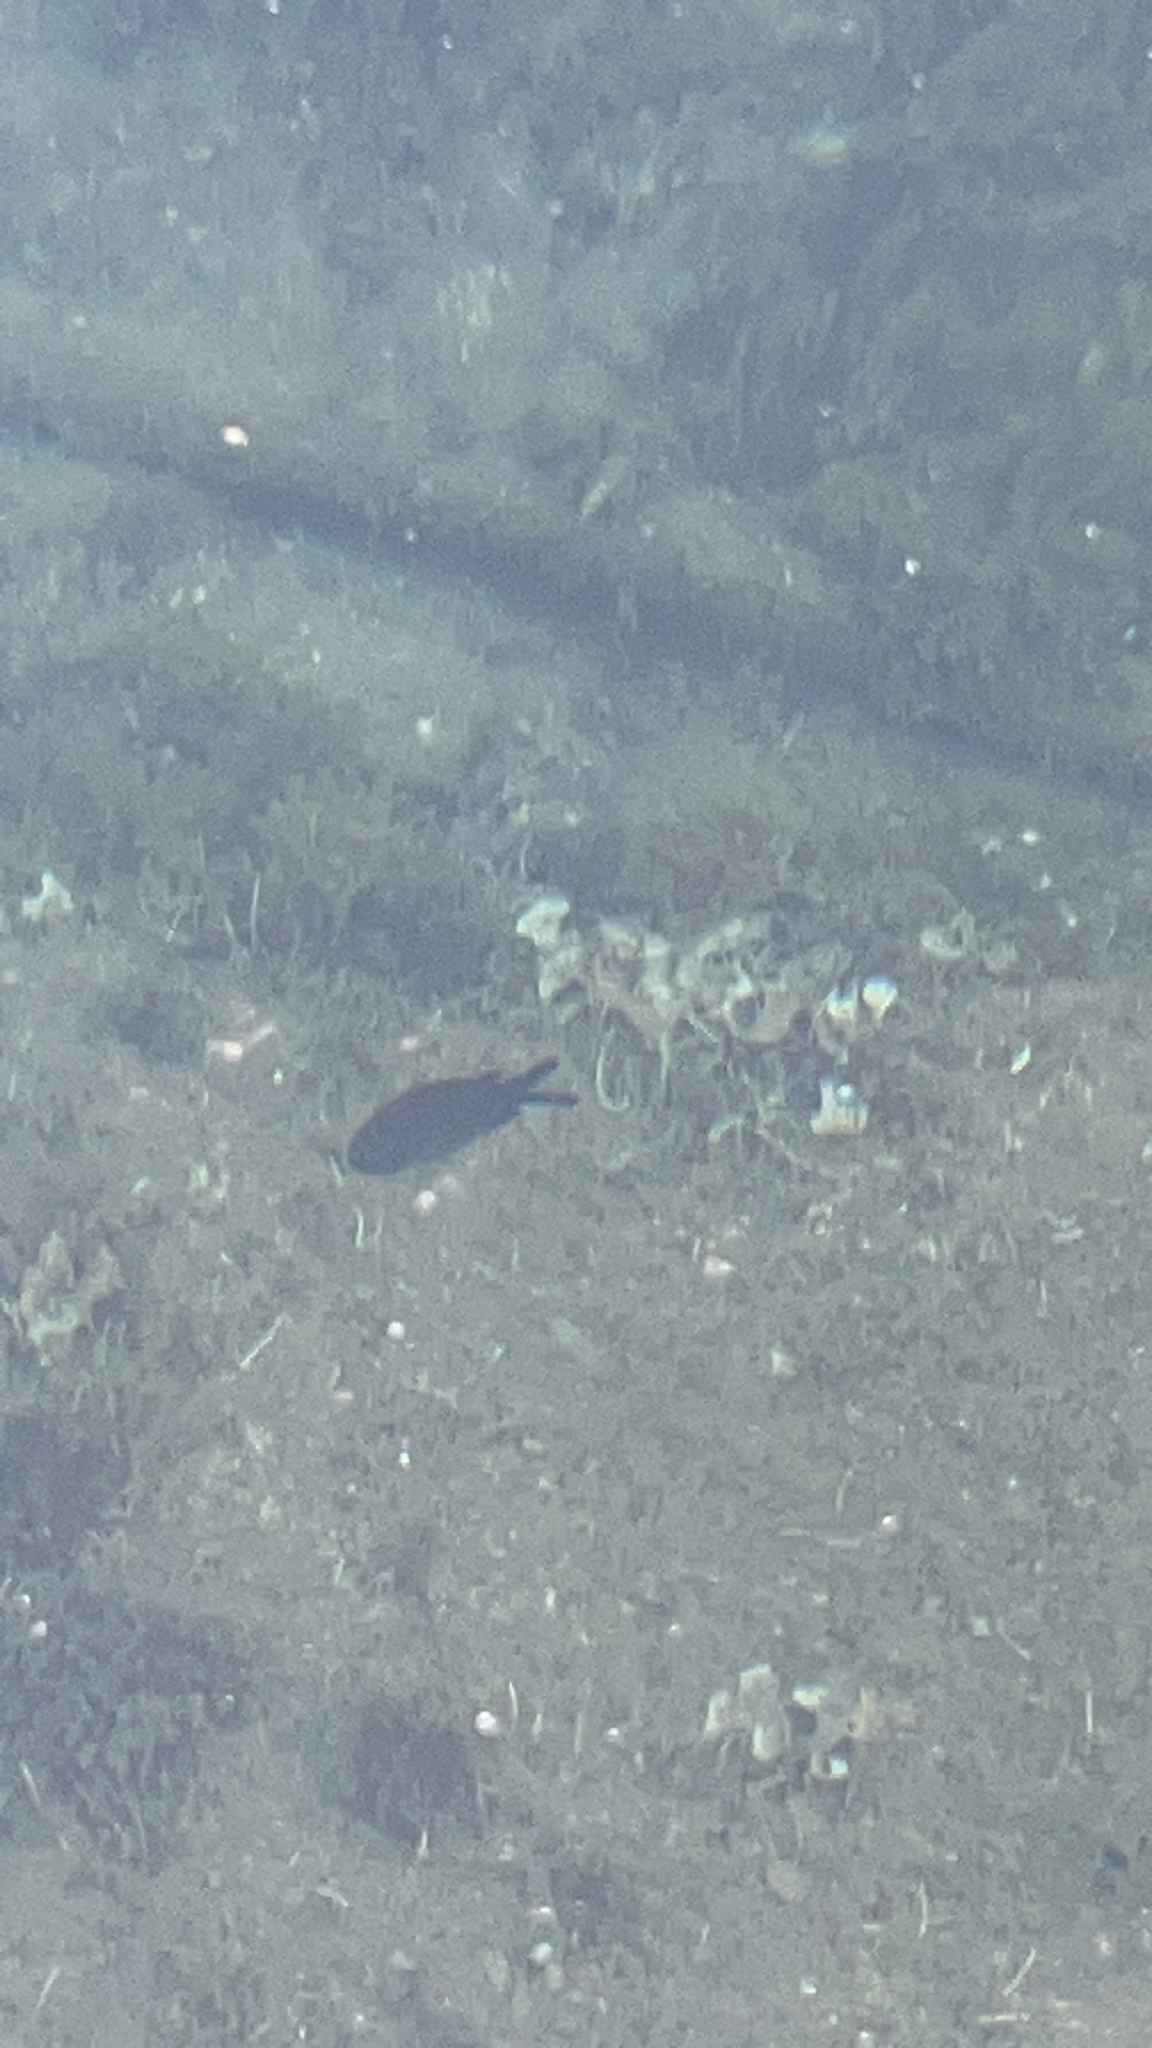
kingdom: Animalia
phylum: Chordata
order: Perciformes
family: Pomacentridae
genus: Chromis
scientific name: Chromis chromis
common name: Damselfish
